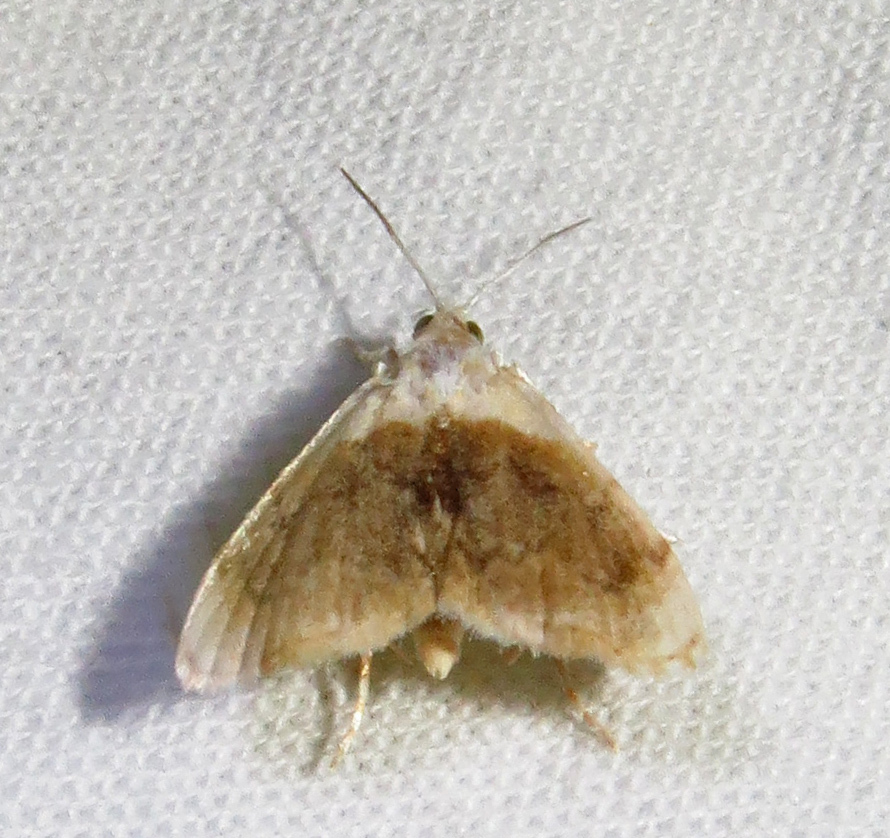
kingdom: Animalia
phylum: Arthropoda
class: Insecta
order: Lepidoptera
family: Crambidae
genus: Lipocosmodes
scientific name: Lipocosmodes fuliginosalis
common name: Sooty lipocosmodes moth
